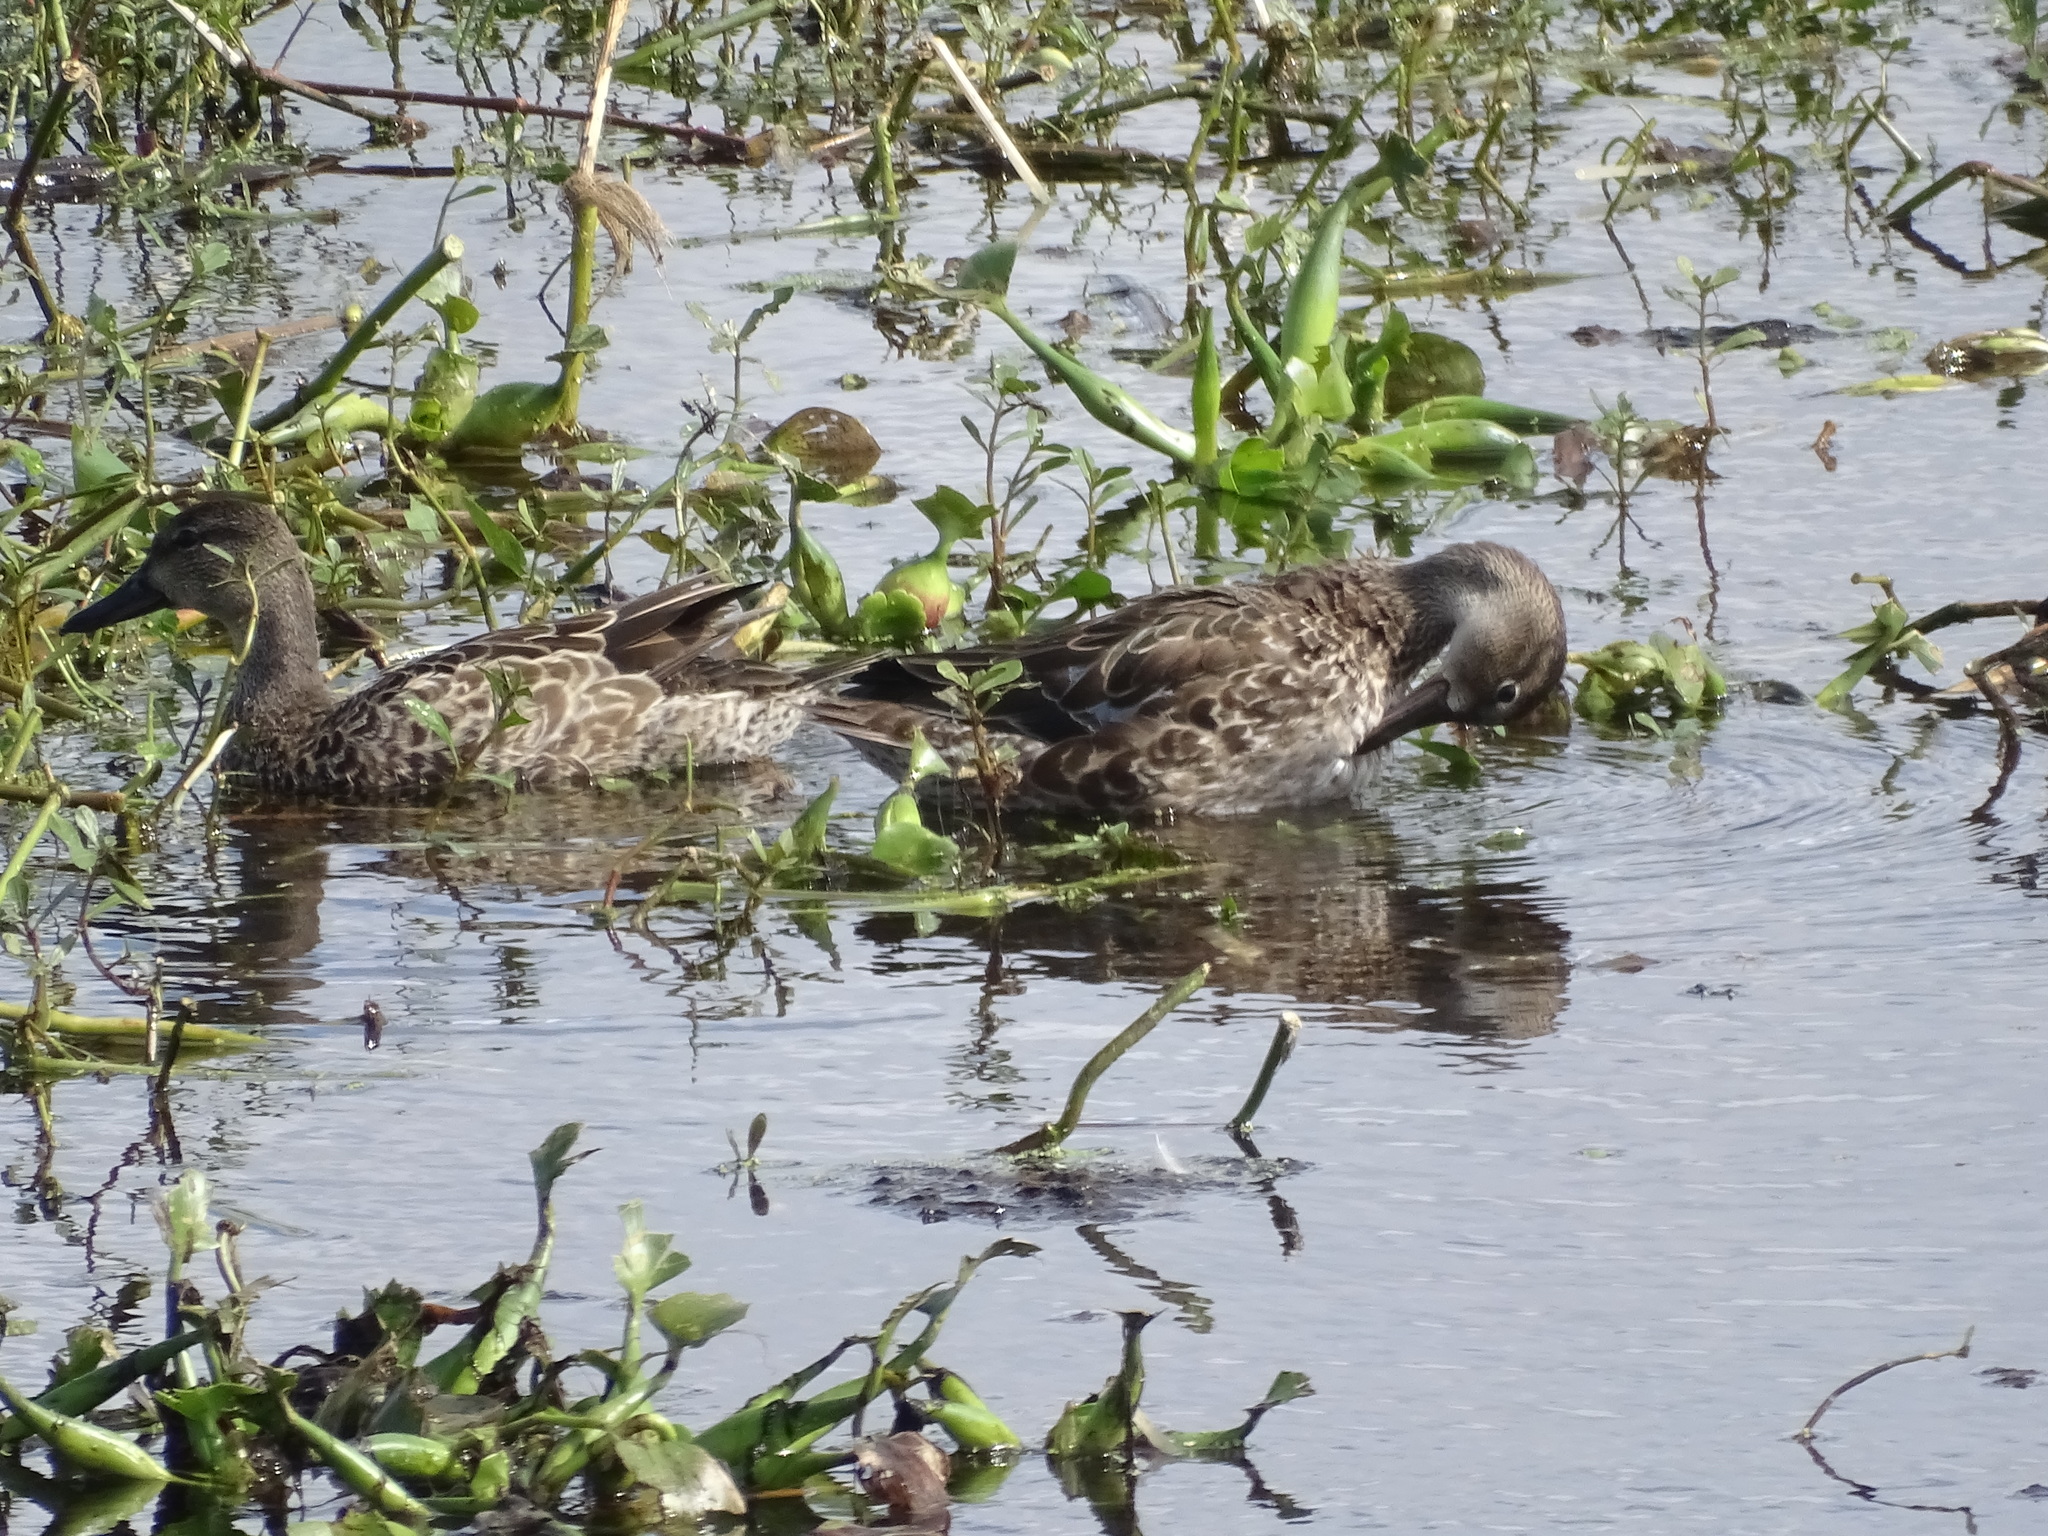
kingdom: Animalia
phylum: Chordata
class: Aves
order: Anseriformes
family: Anatidae
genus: Spatula
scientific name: Spatula discors
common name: Blue-winged teal
